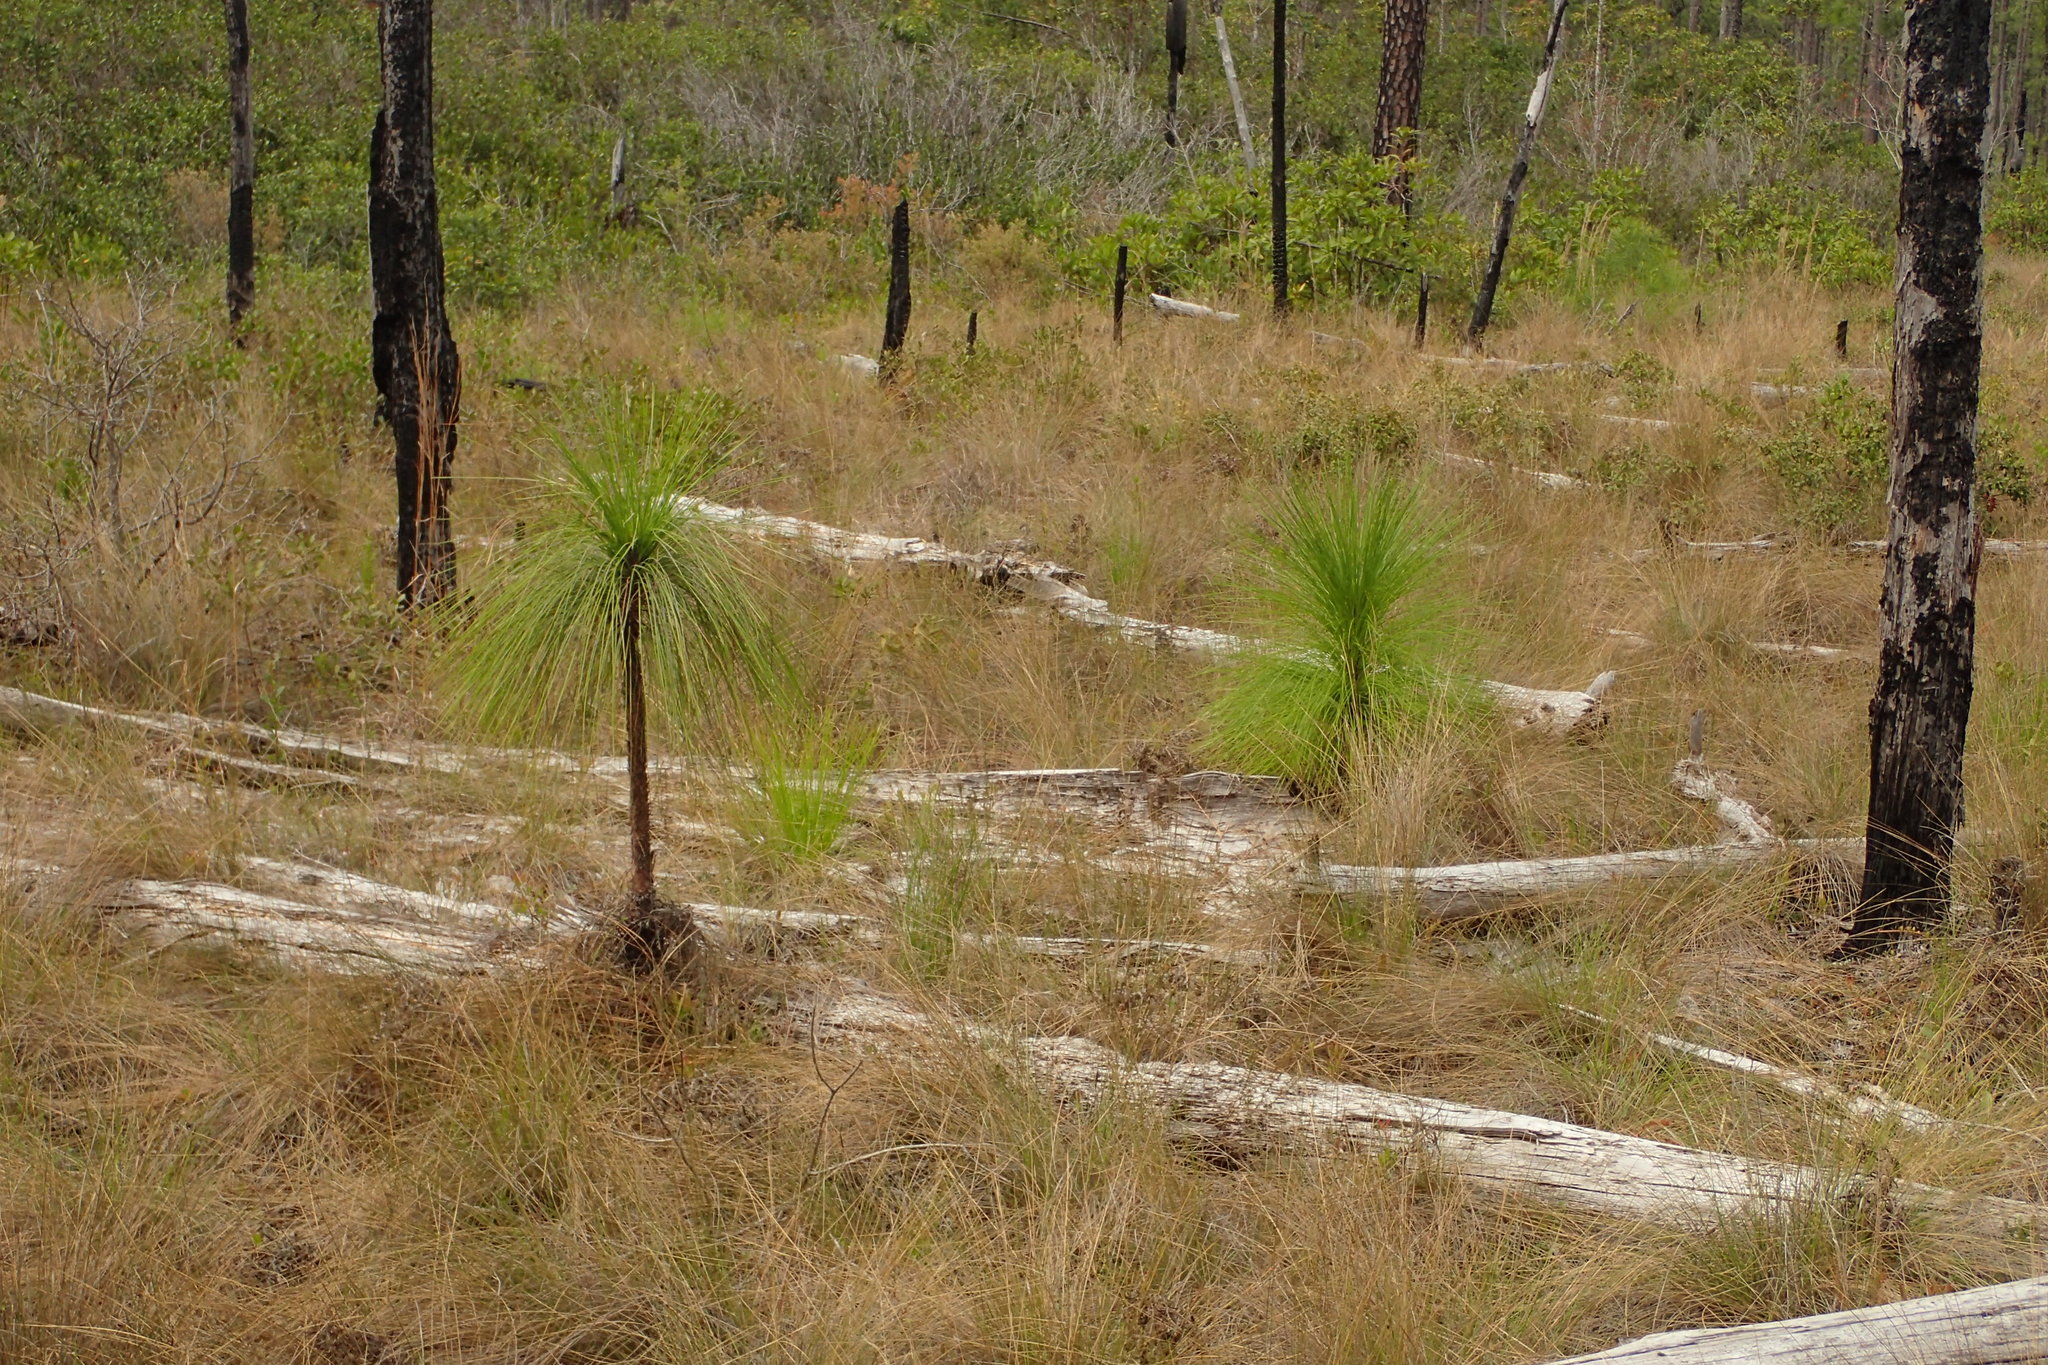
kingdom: Plantae
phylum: Tracheophyta
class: Pinopsida
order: Pinales
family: Pinaceae
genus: Pinus
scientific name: Pinus palustris
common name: Longleaf pine
